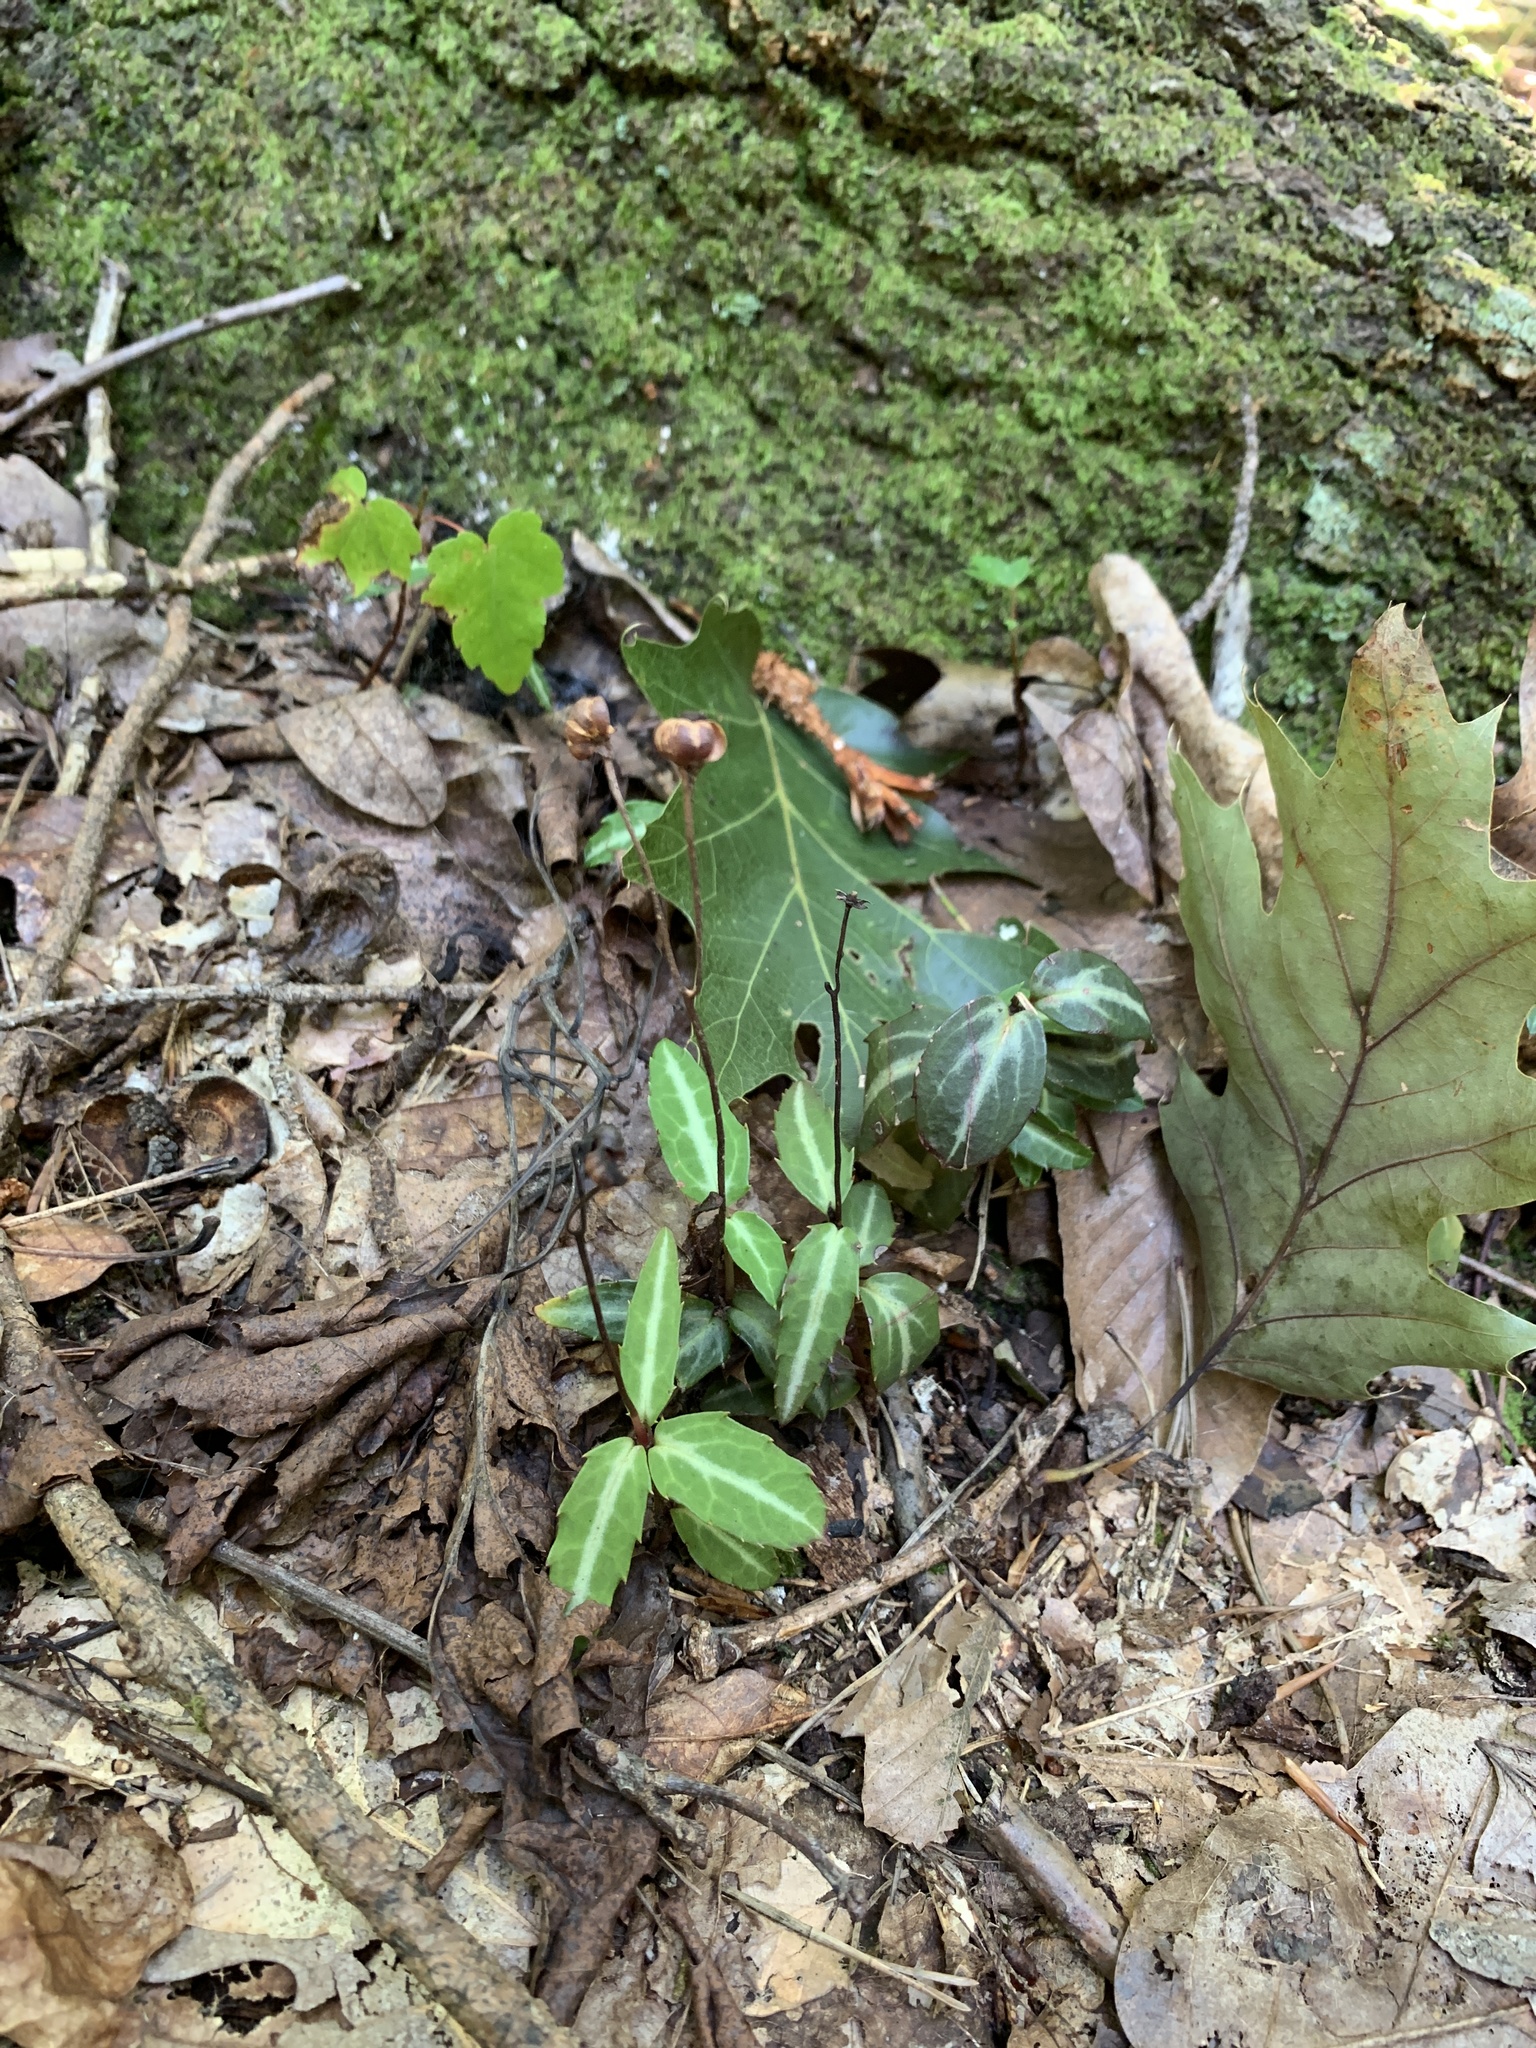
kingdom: Plantae
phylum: Tracheophyta
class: Magnoliopsida
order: Ericales
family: Ericaceae
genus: Chimaphila
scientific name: Chimaphila maculata
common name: Spotted pipsissewa
